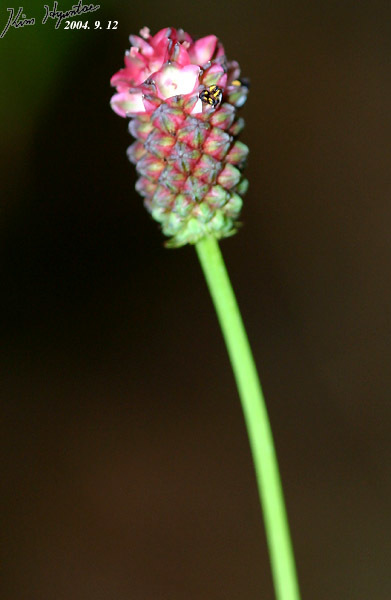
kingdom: Plantae
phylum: Tracheophyta
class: Magnoliopsida
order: Rosales
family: Rosaceae
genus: Sanguisorba
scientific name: Sanguisorba officinalis
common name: Great burnet
